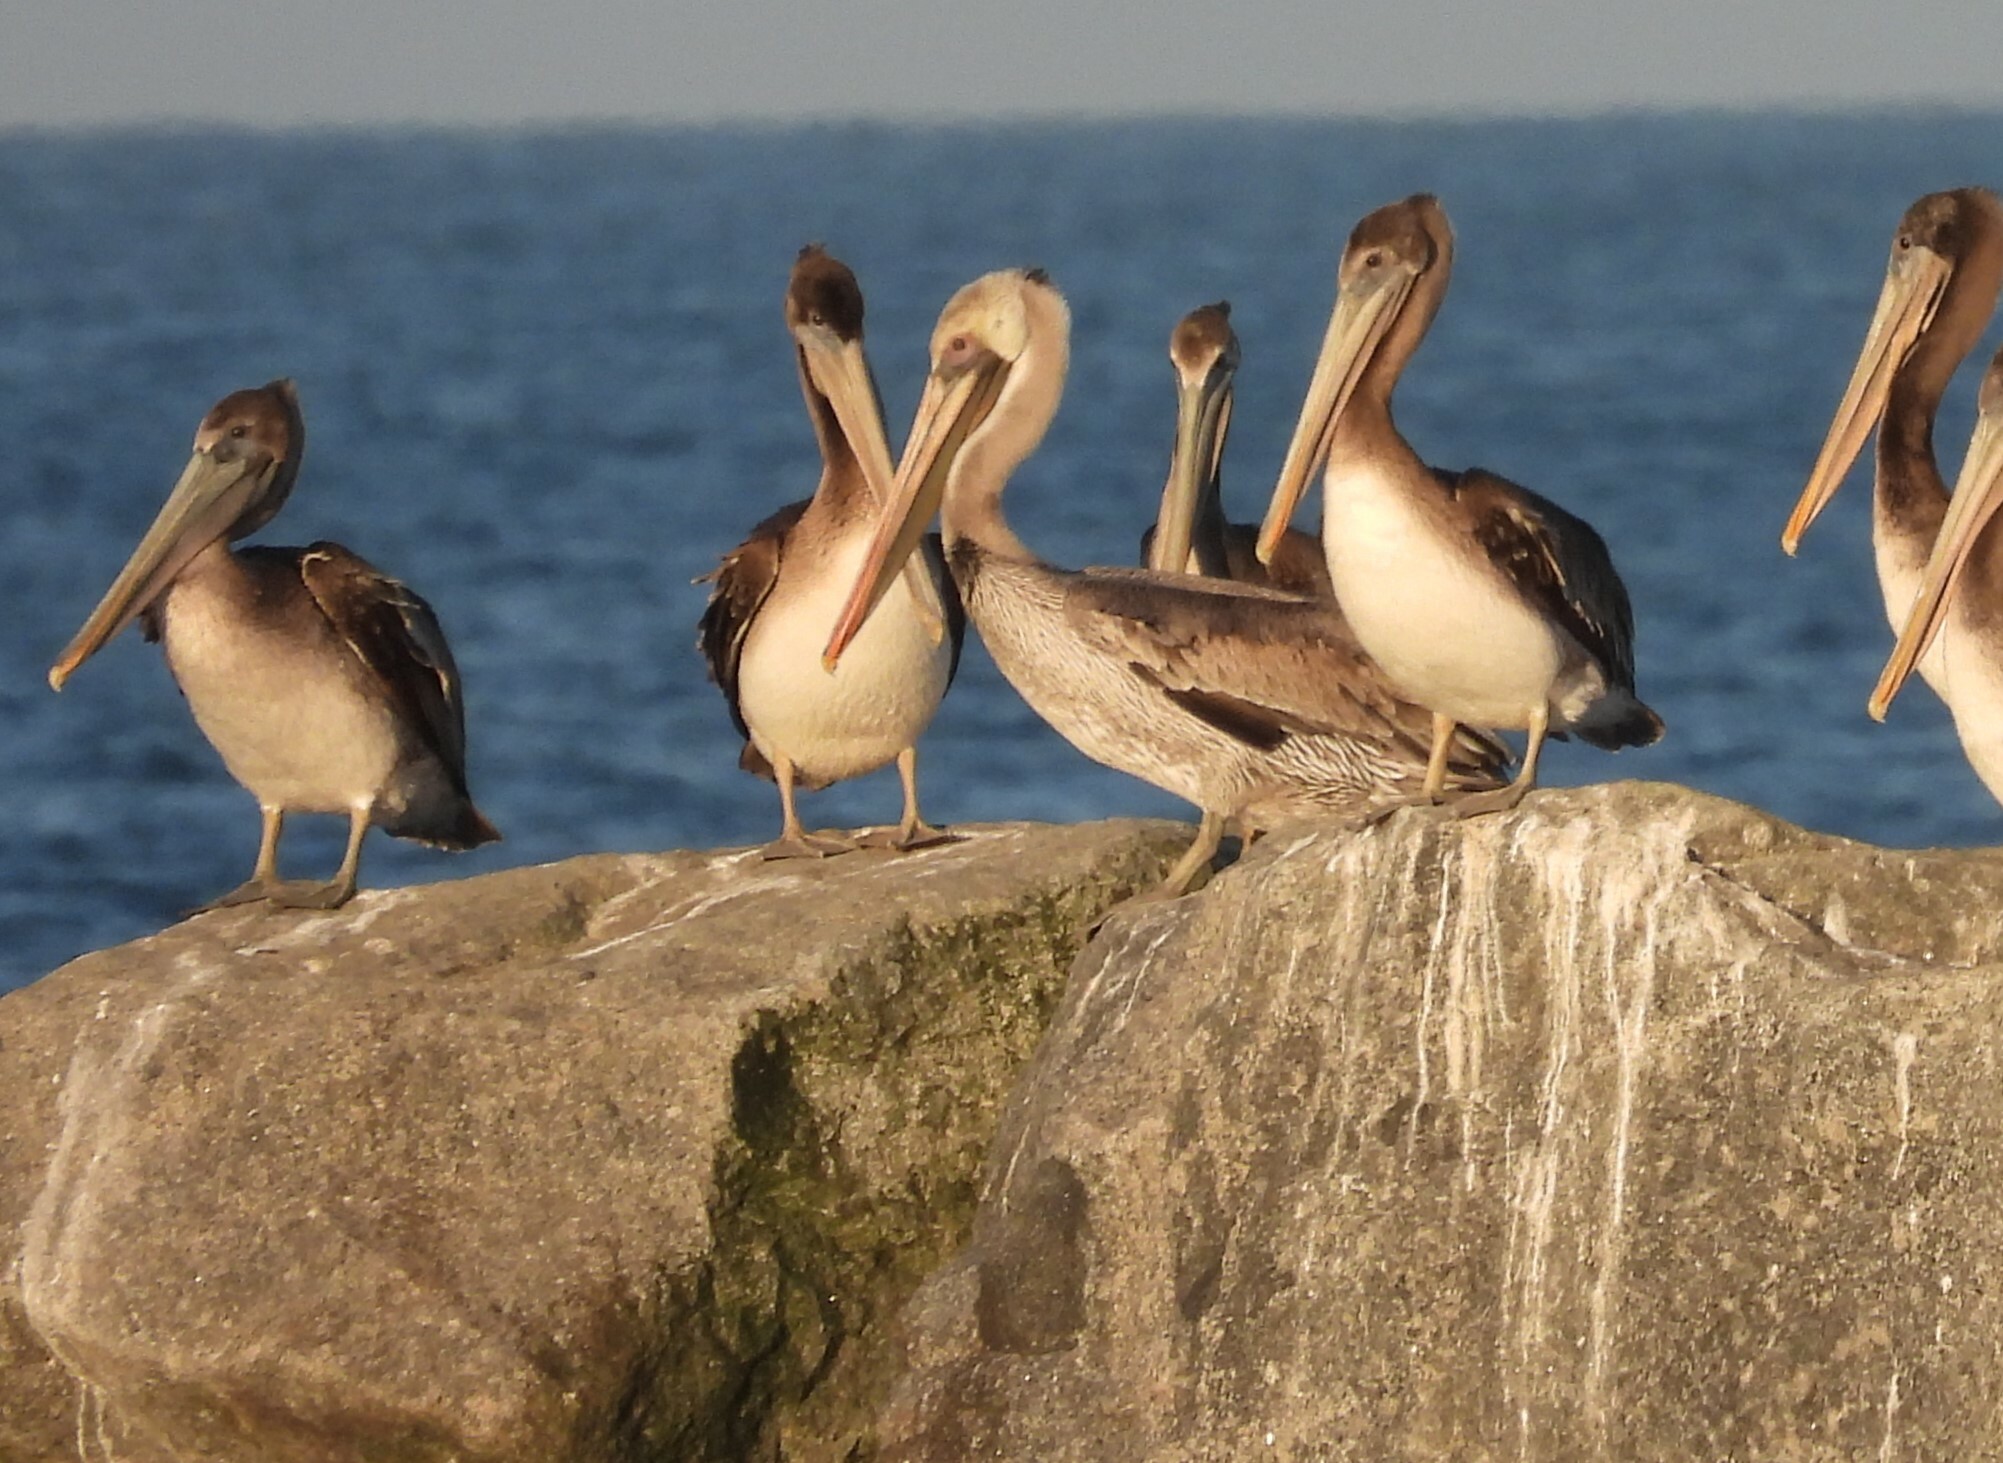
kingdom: Animalia
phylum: Chordata
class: Aves
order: Pelecaniformes
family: Pelecanidae
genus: Pelecanus
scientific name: Pelecanus occidentalis
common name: Brown pelican
